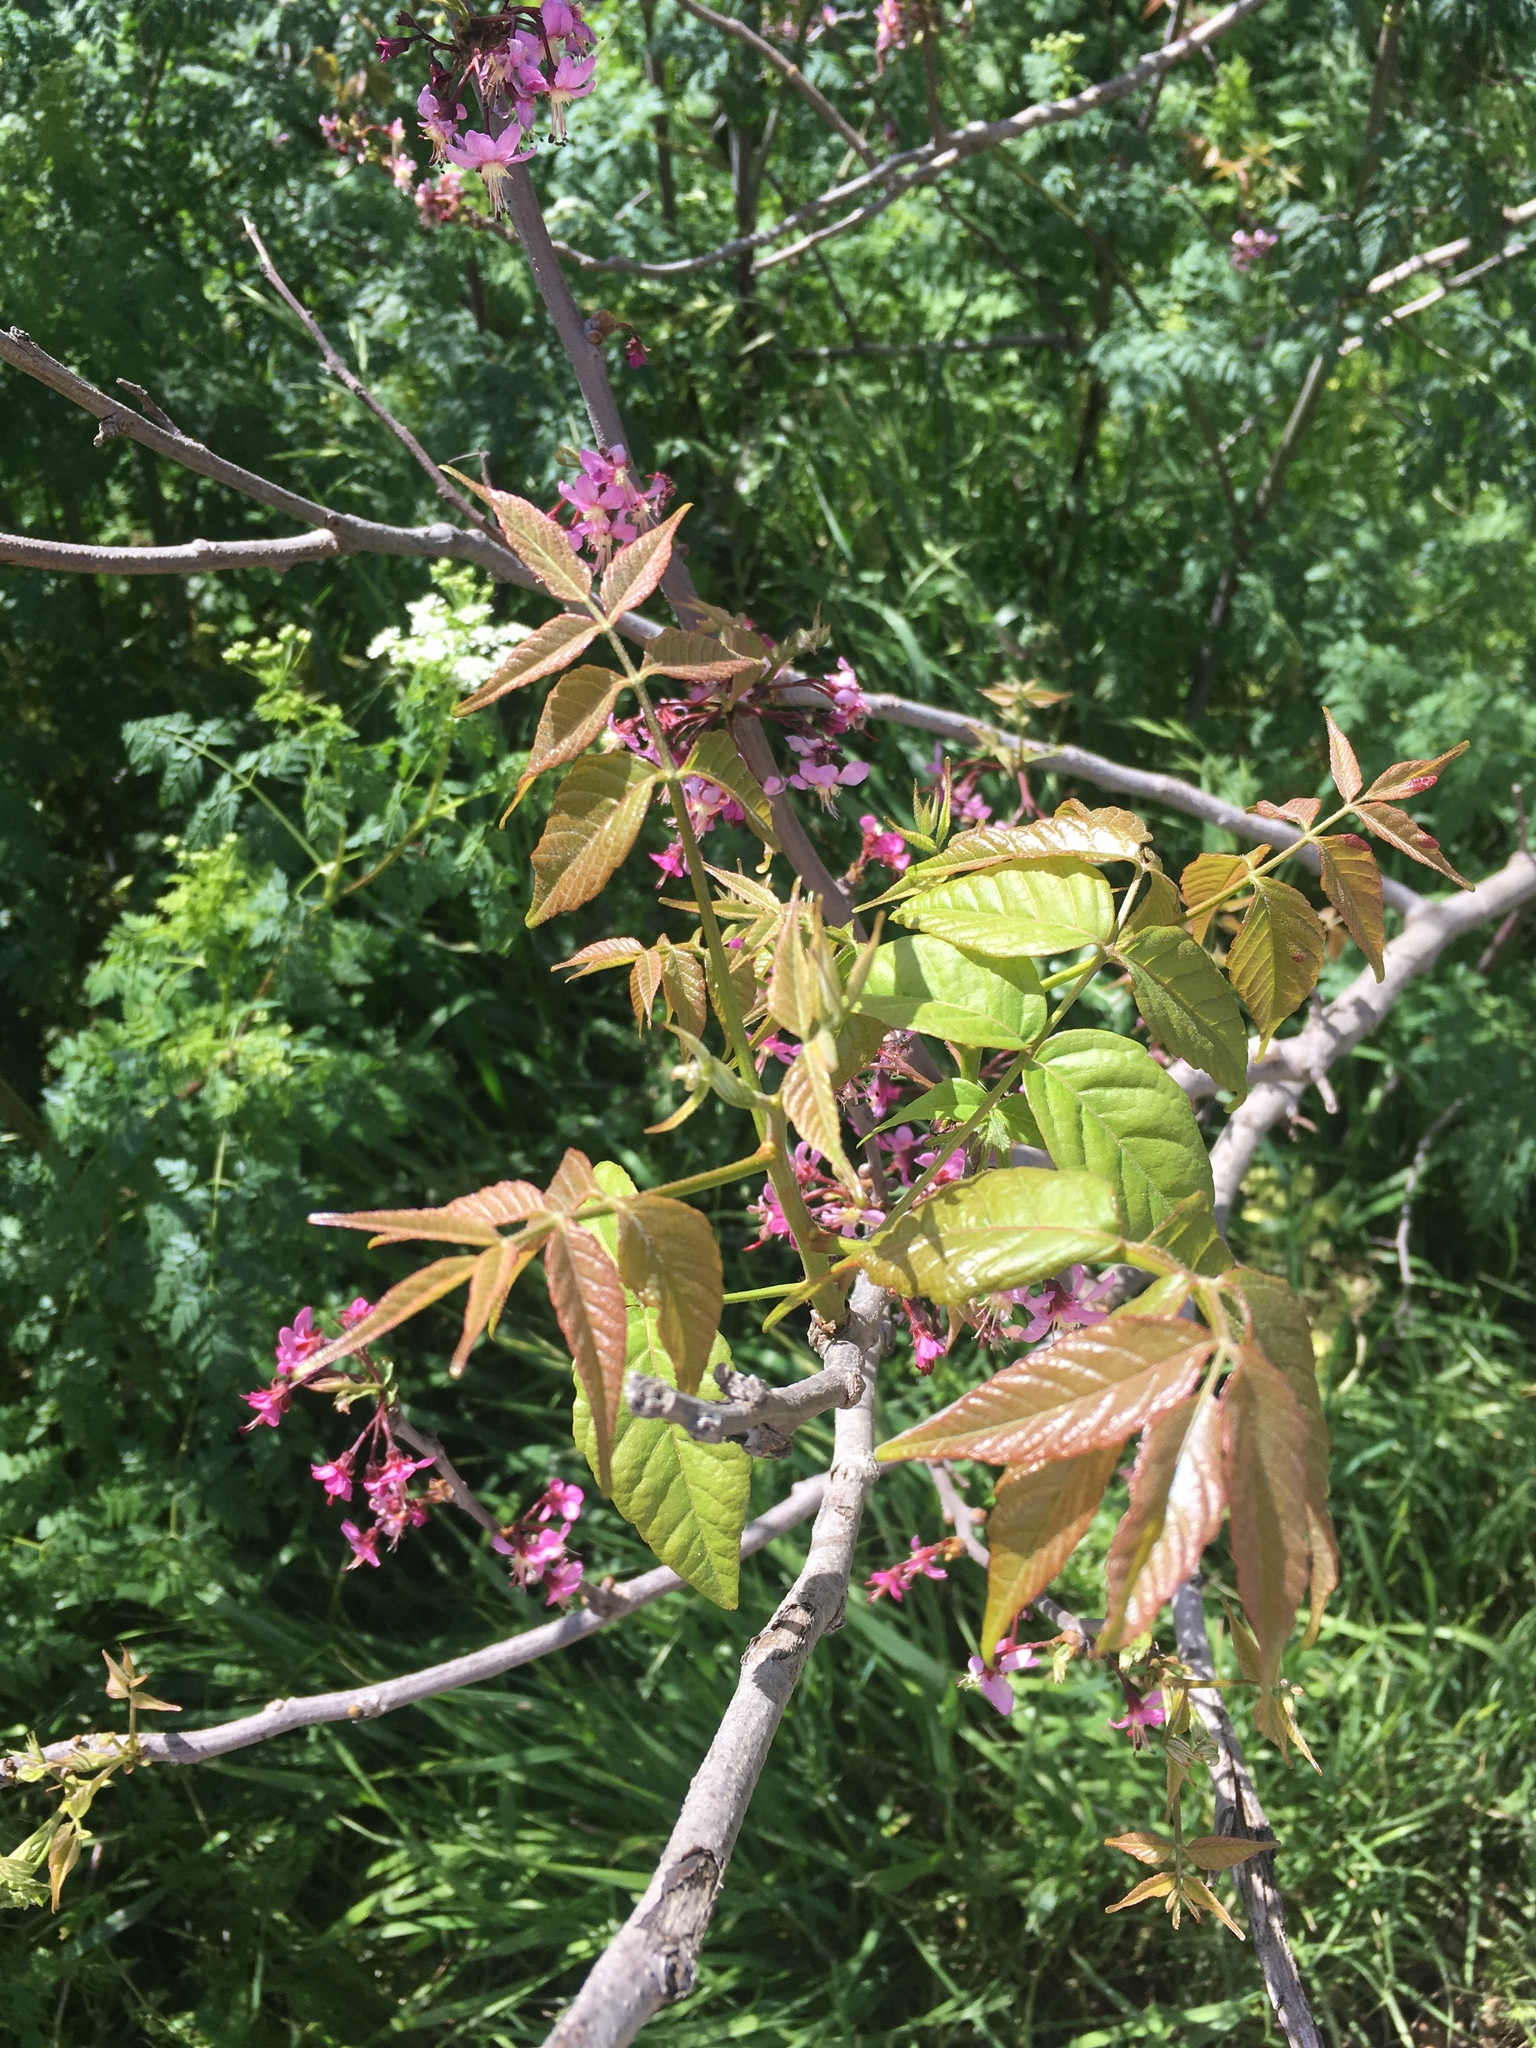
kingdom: Plantae
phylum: Tracheophyta
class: Magnoliopsida
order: Sapindales
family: Sapindaceae
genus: Ungnadia
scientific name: Ungnadia speciosa
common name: Texas-buckeye
